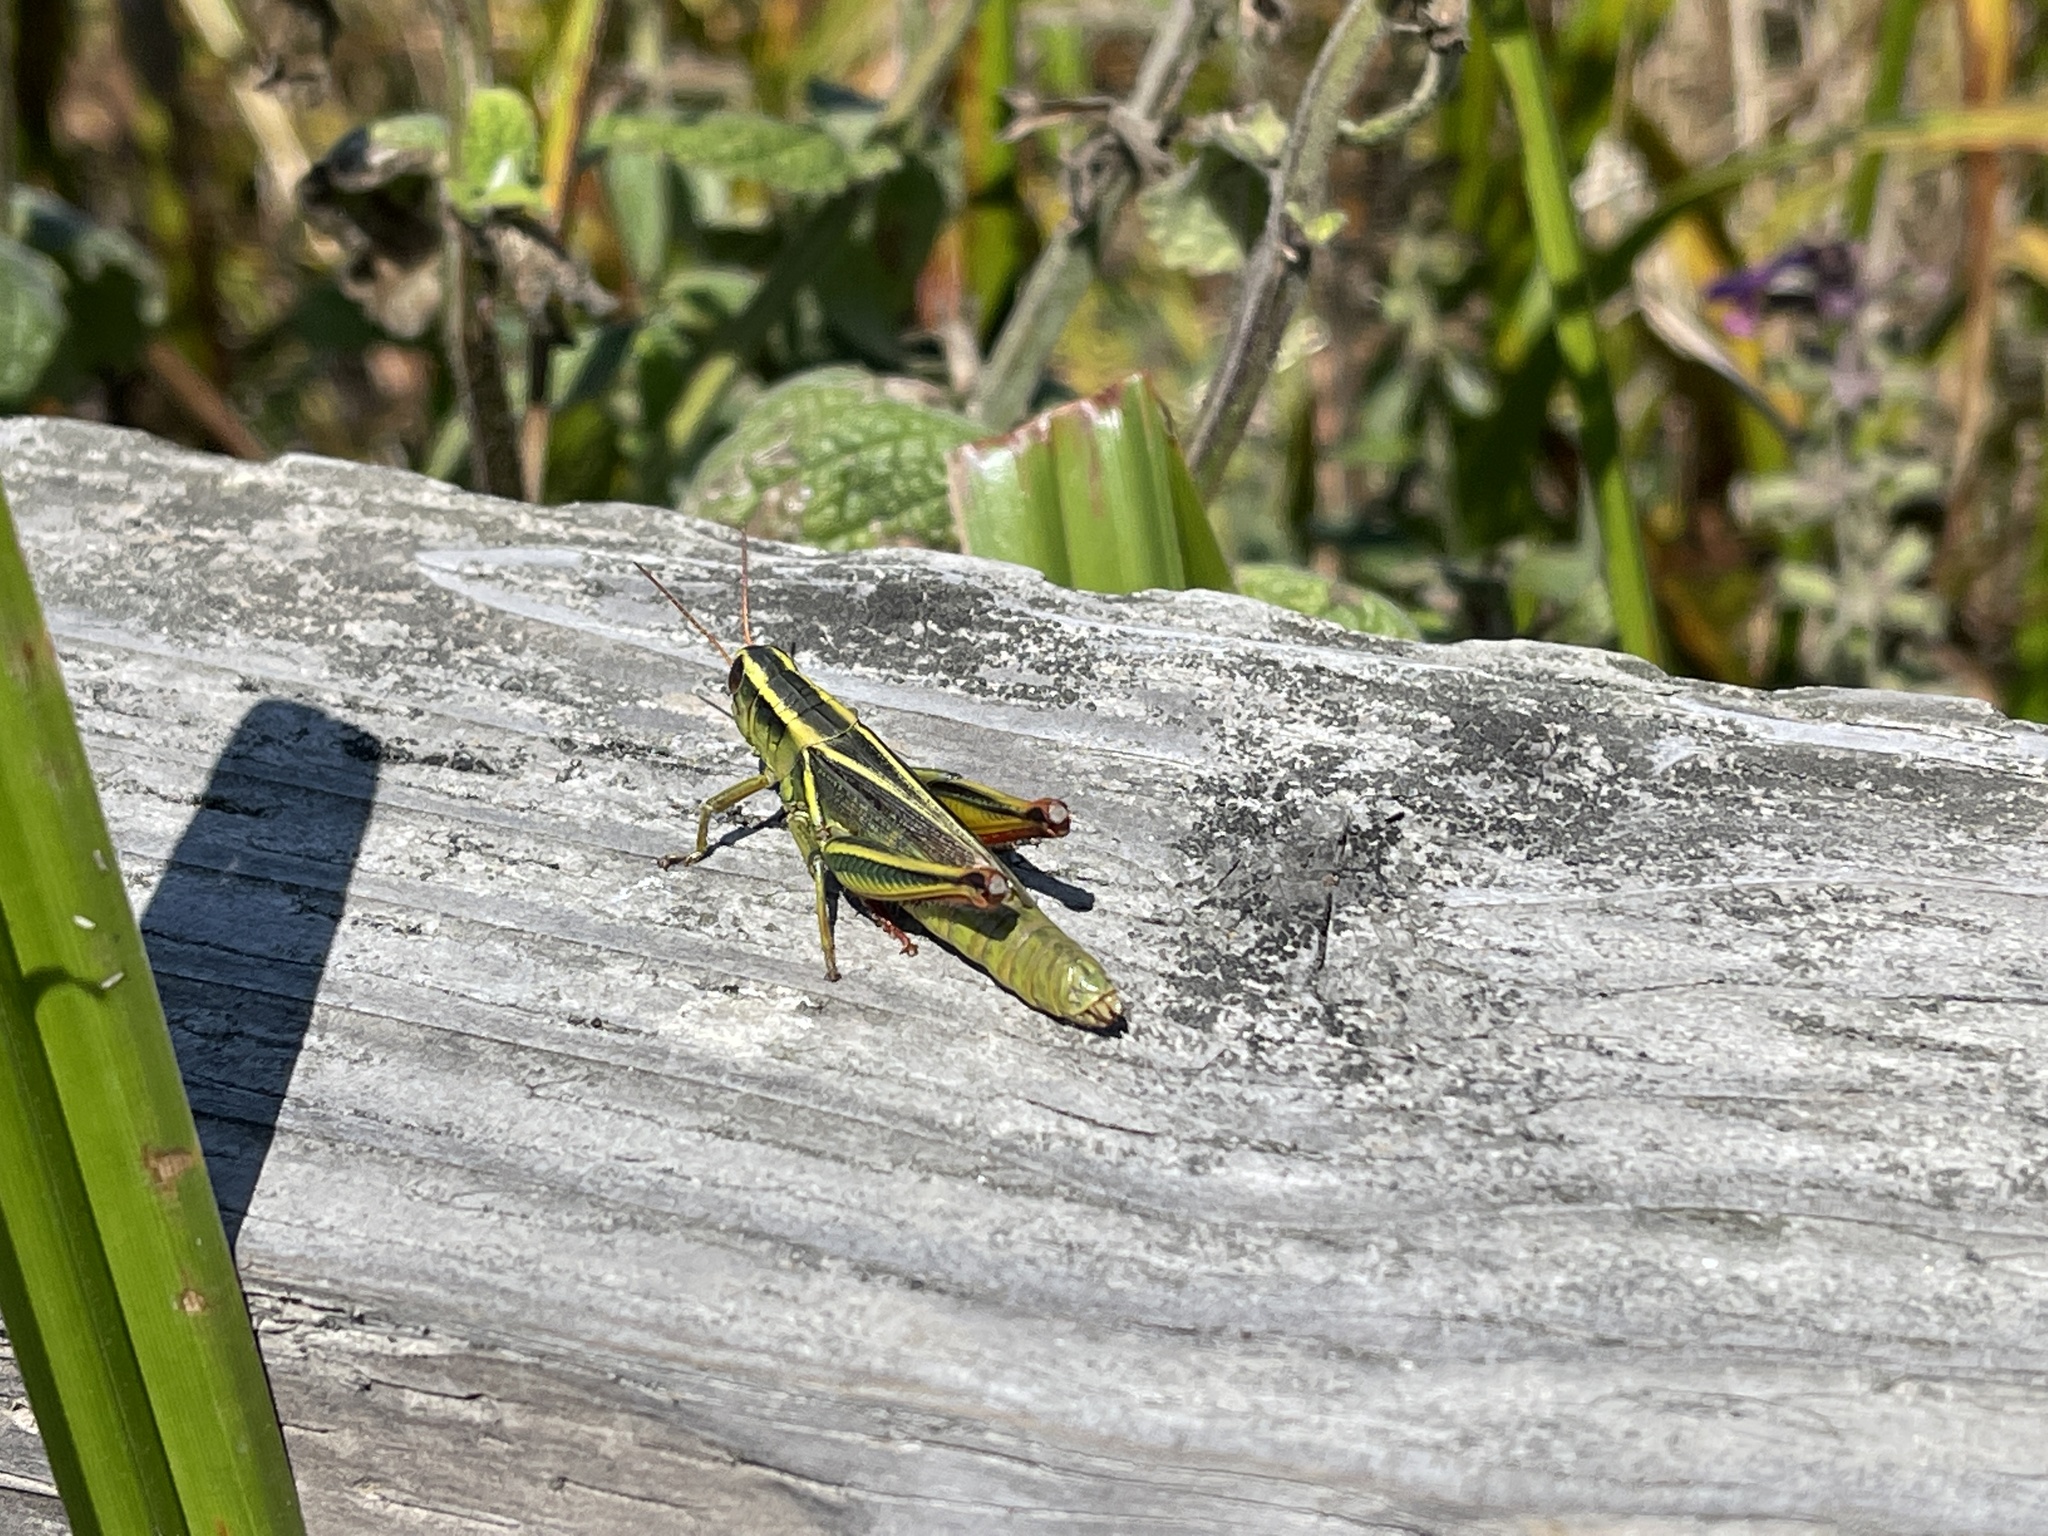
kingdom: Animalia
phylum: Arthropoda
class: Insecta
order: Orthoptera
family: Acrididae
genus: Melanoplus
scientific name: Melanoplus bivittatus
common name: Two-striped grasshopper
